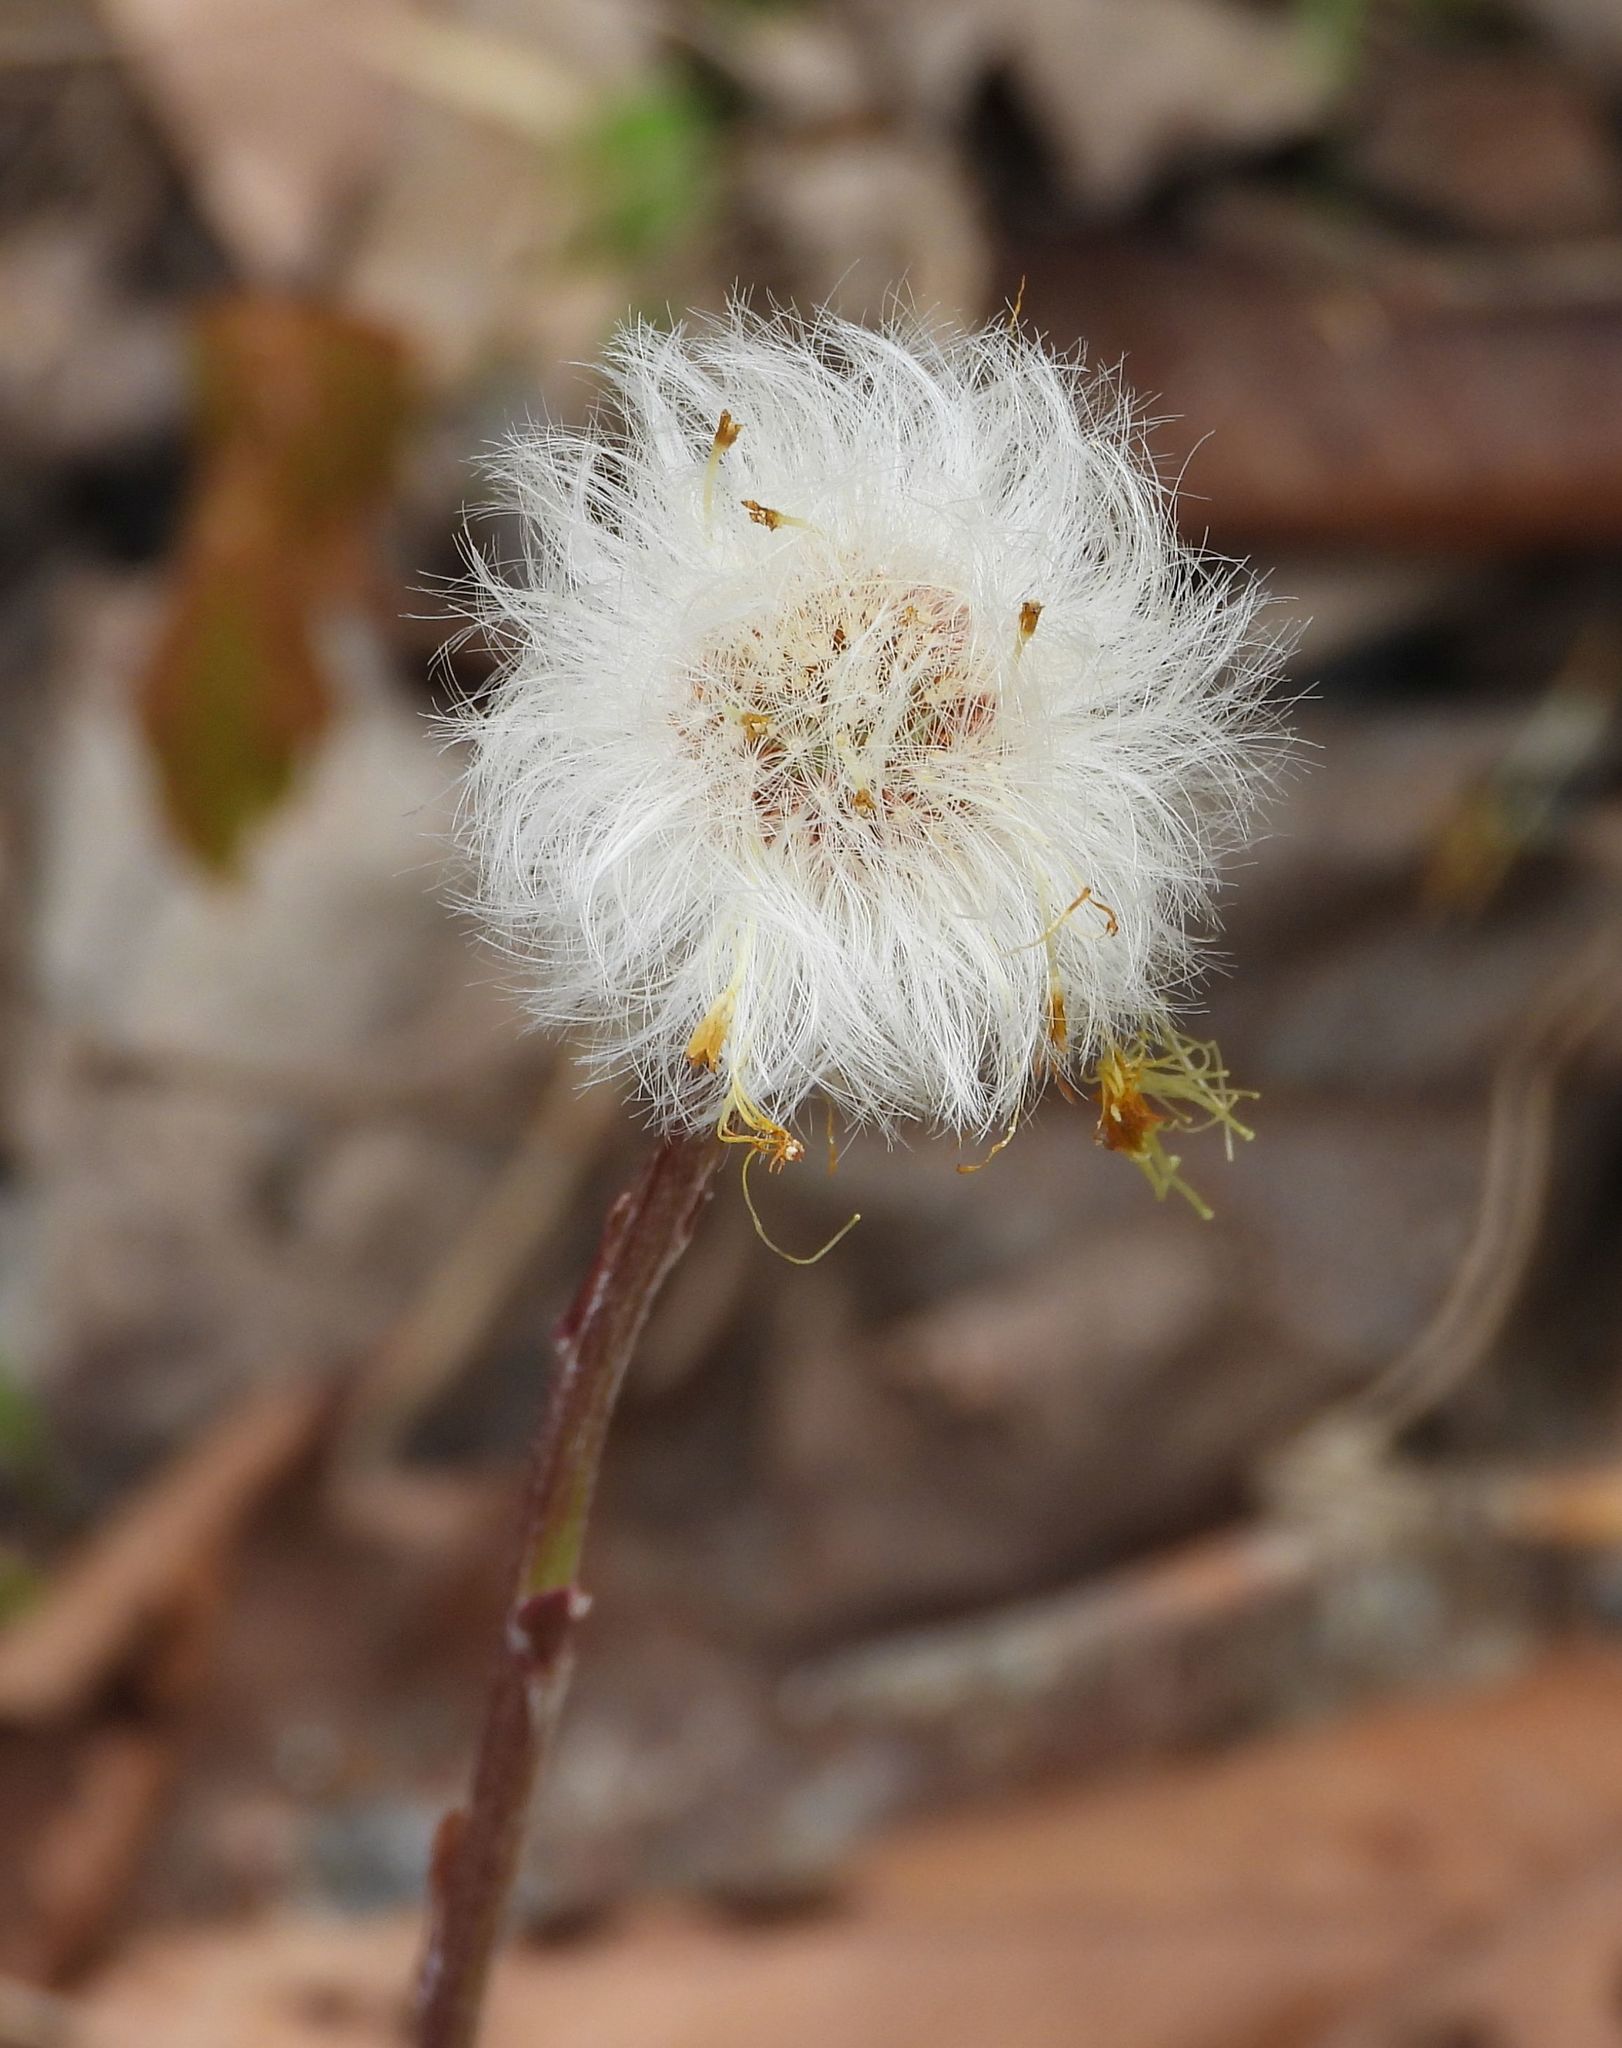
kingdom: Plantae
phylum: Tracheophyta
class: Magnoliopsida
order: Asterales
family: Asteraceae
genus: Tussilago
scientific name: Tussilago farfara
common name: Coltsfoot
